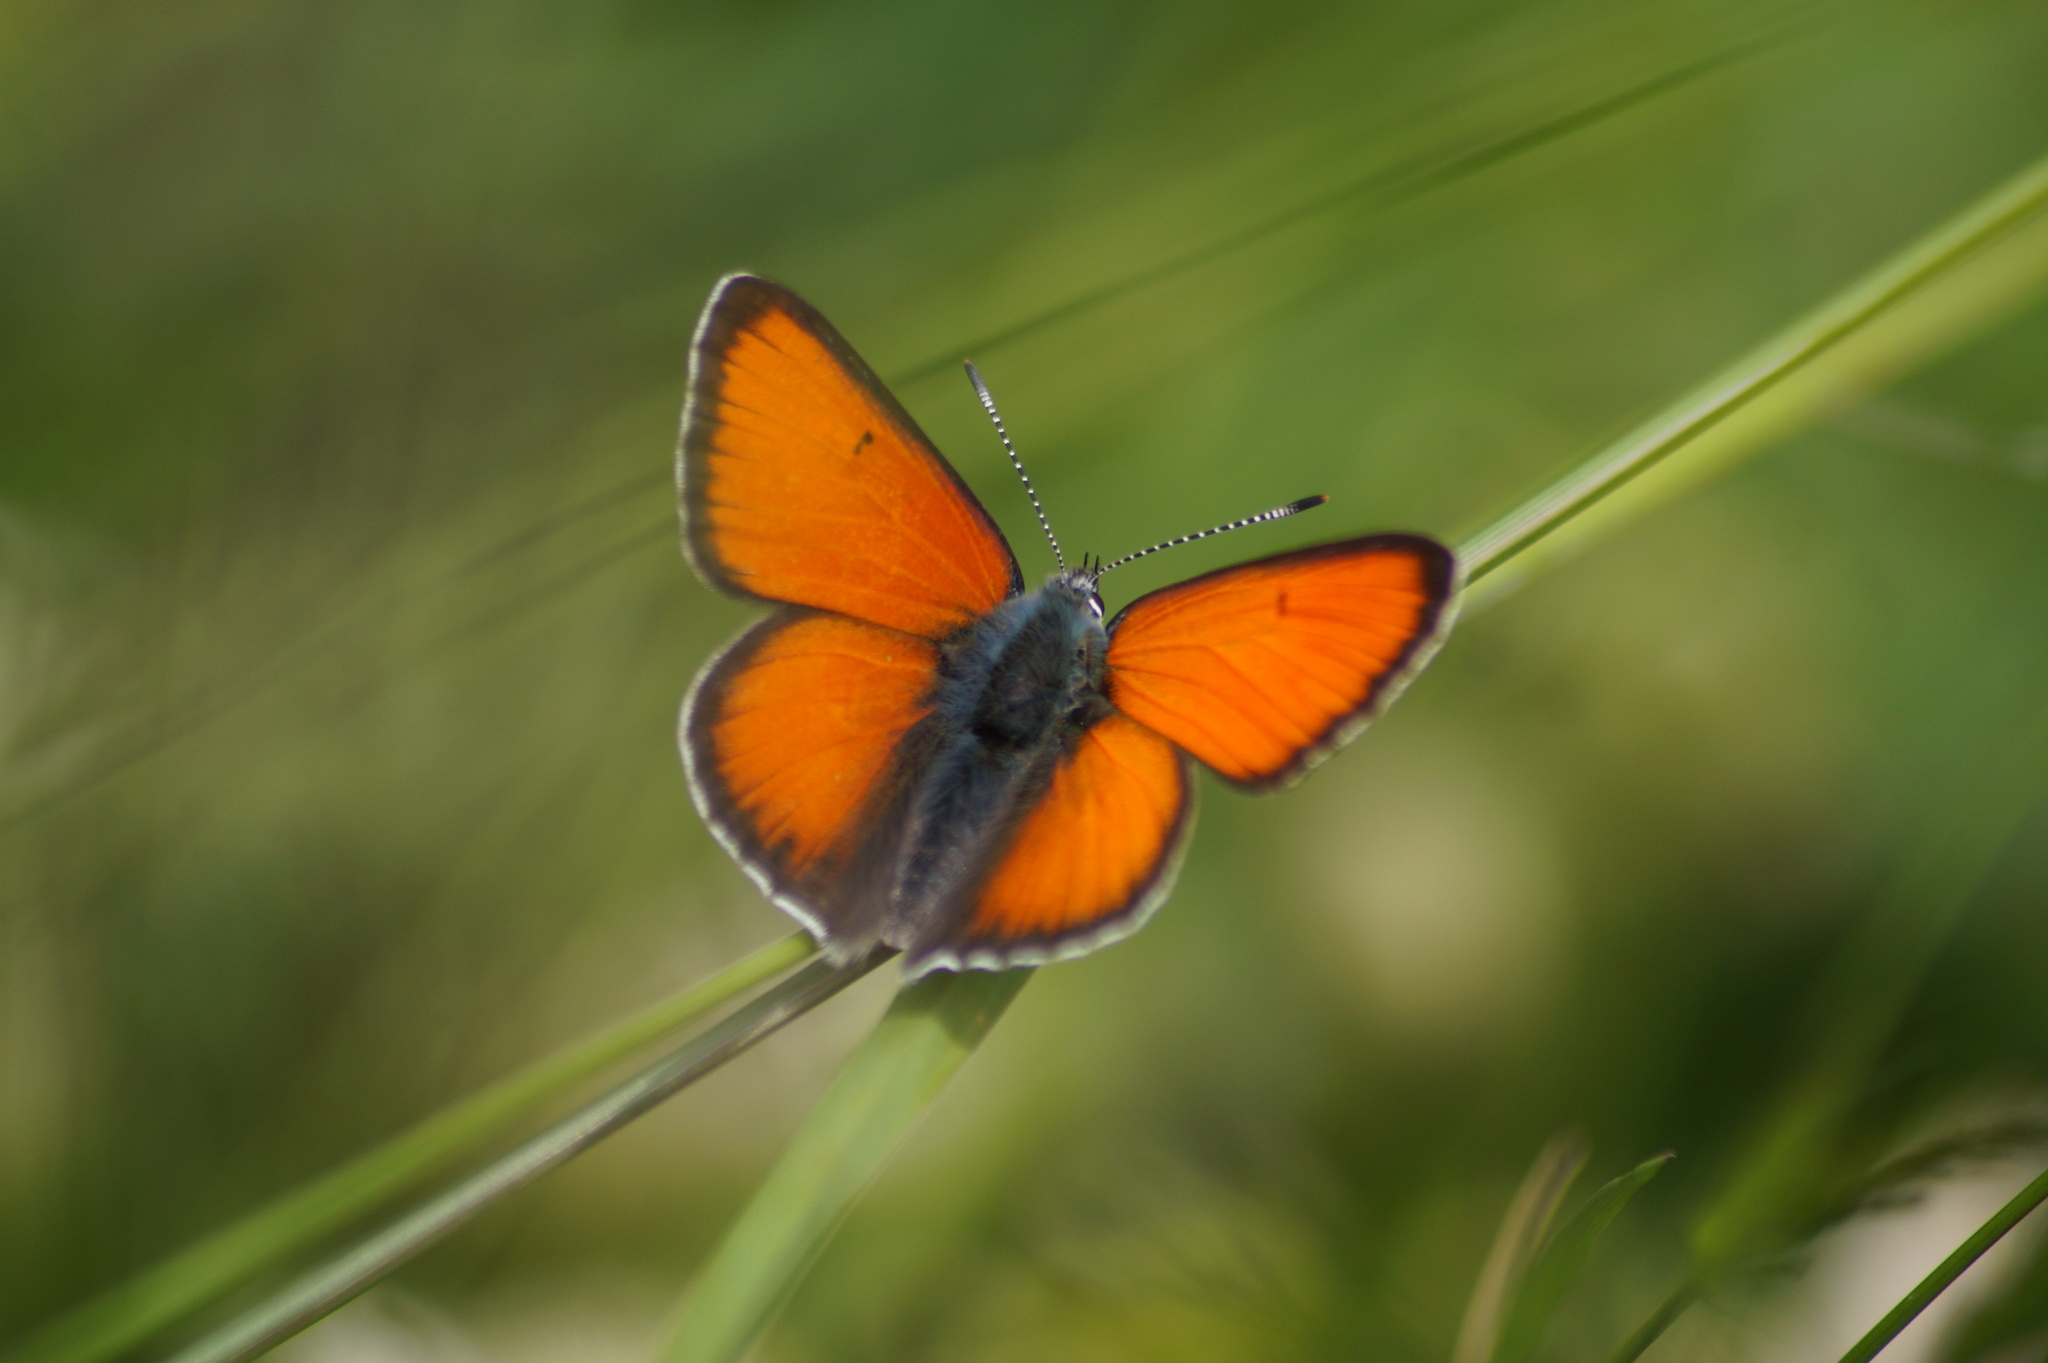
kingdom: Animalia
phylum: Arthropoda
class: Insecta
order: Lepidoptera
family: Lycaenidae
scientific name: Lycaenidae
